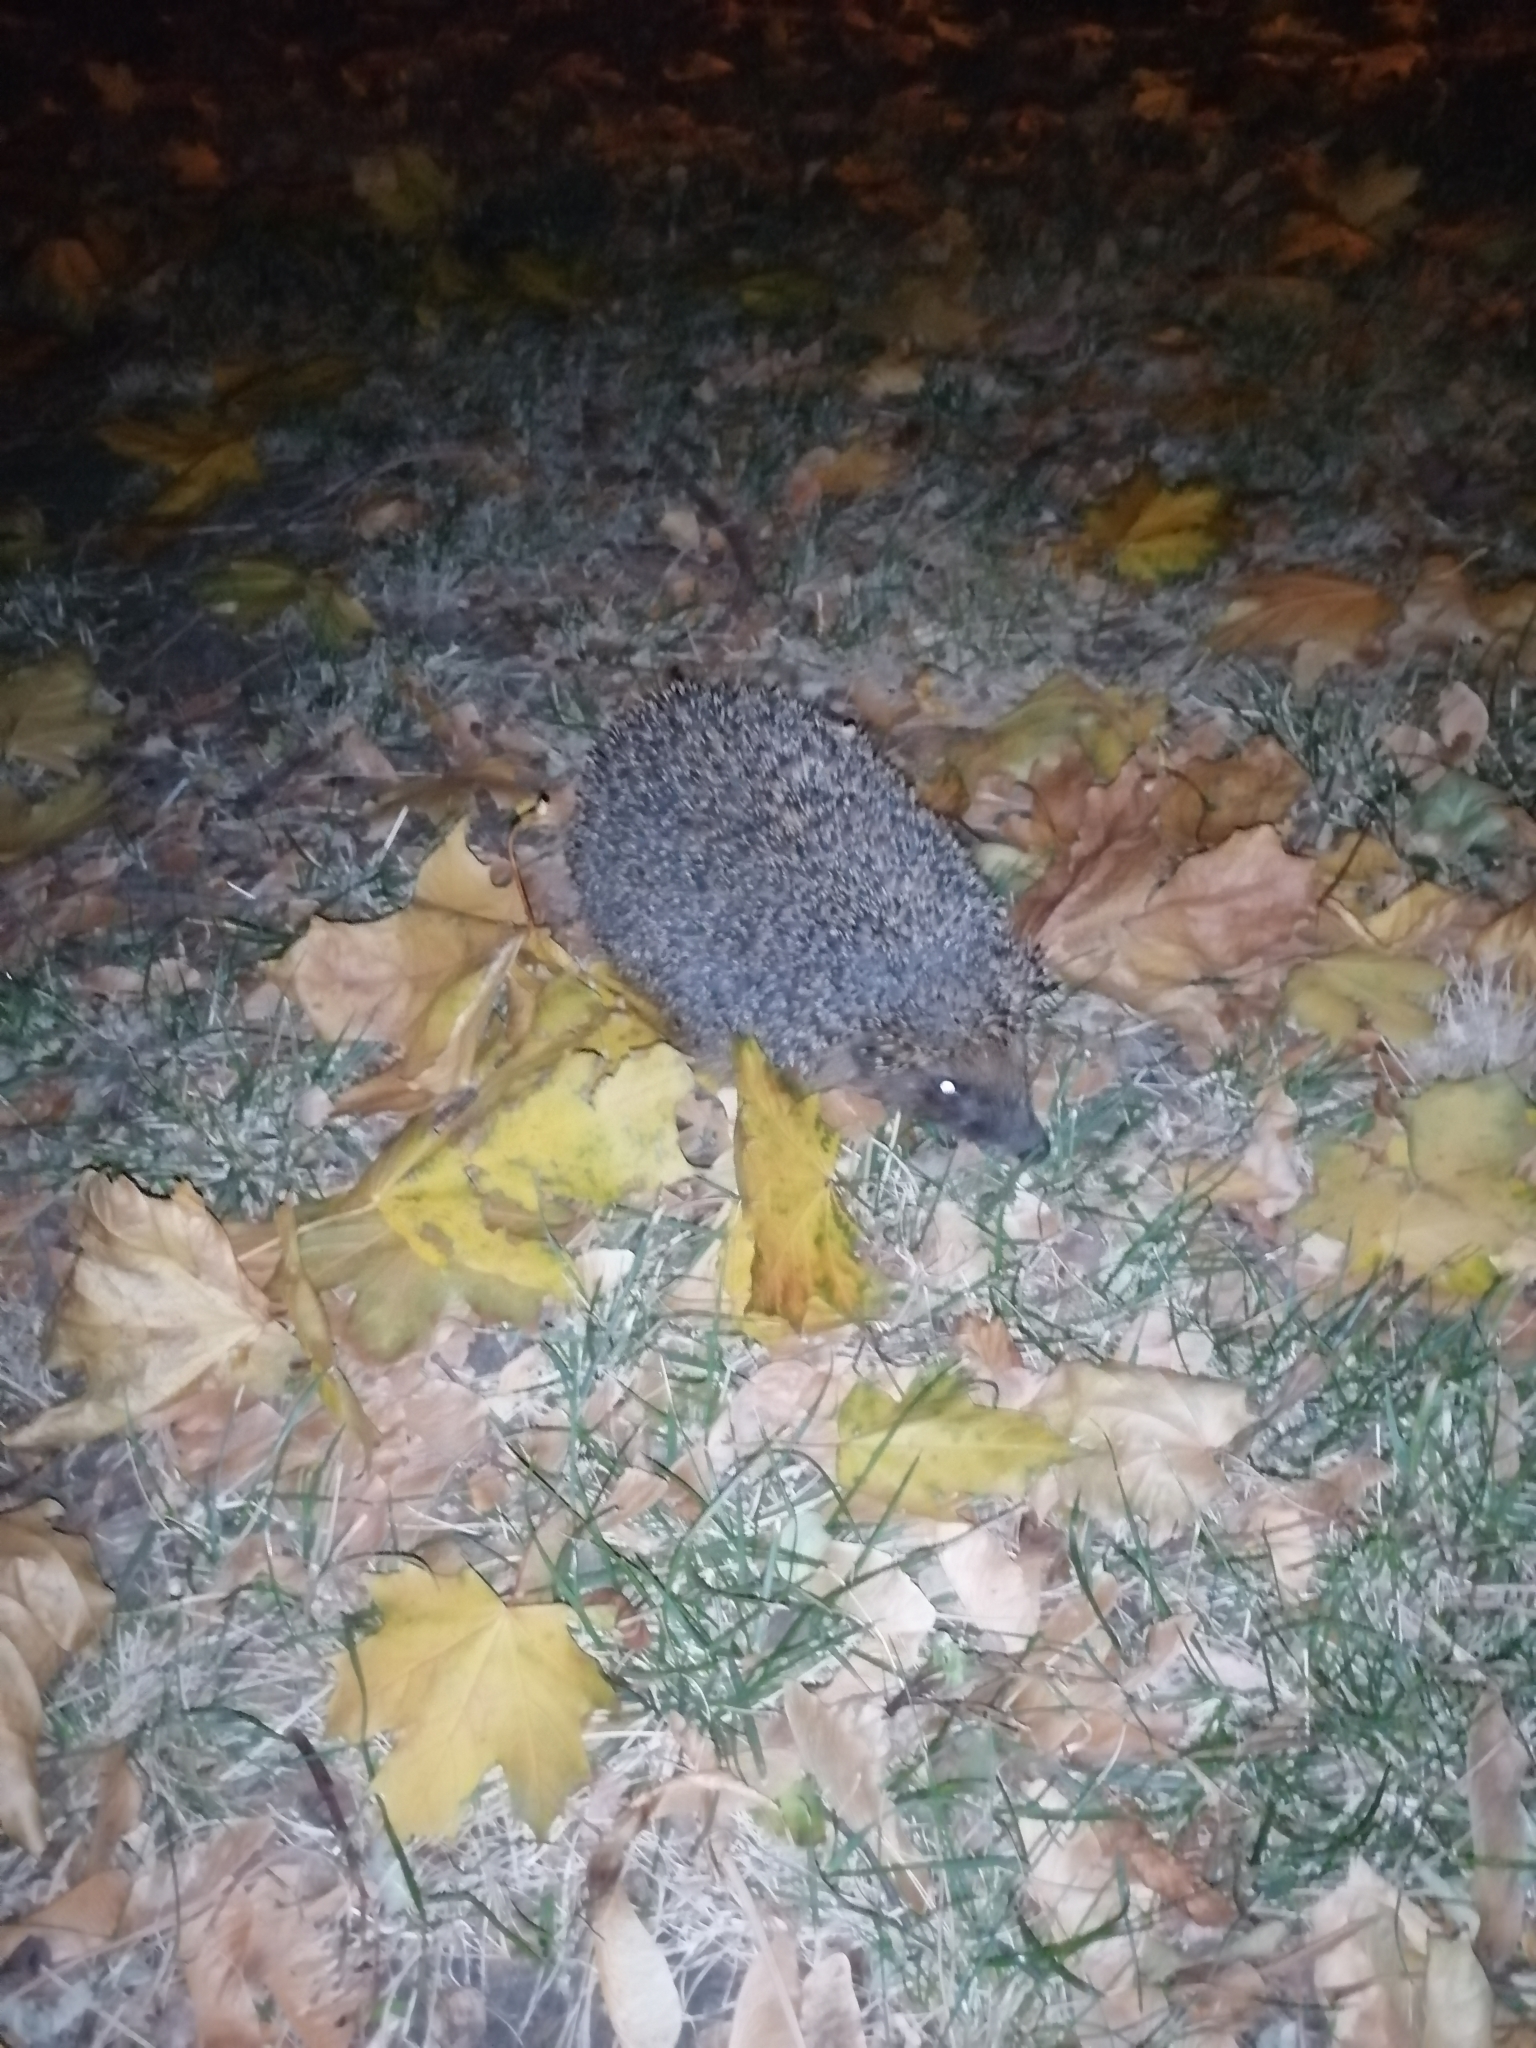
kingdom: Animalia
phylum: Chordata
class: Mammalia
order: Erinaceomorpha
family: Erinaceidae
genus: Erinaceus
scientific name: Erinaceus roumanicus
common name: Northern white-breasted hedgehog
